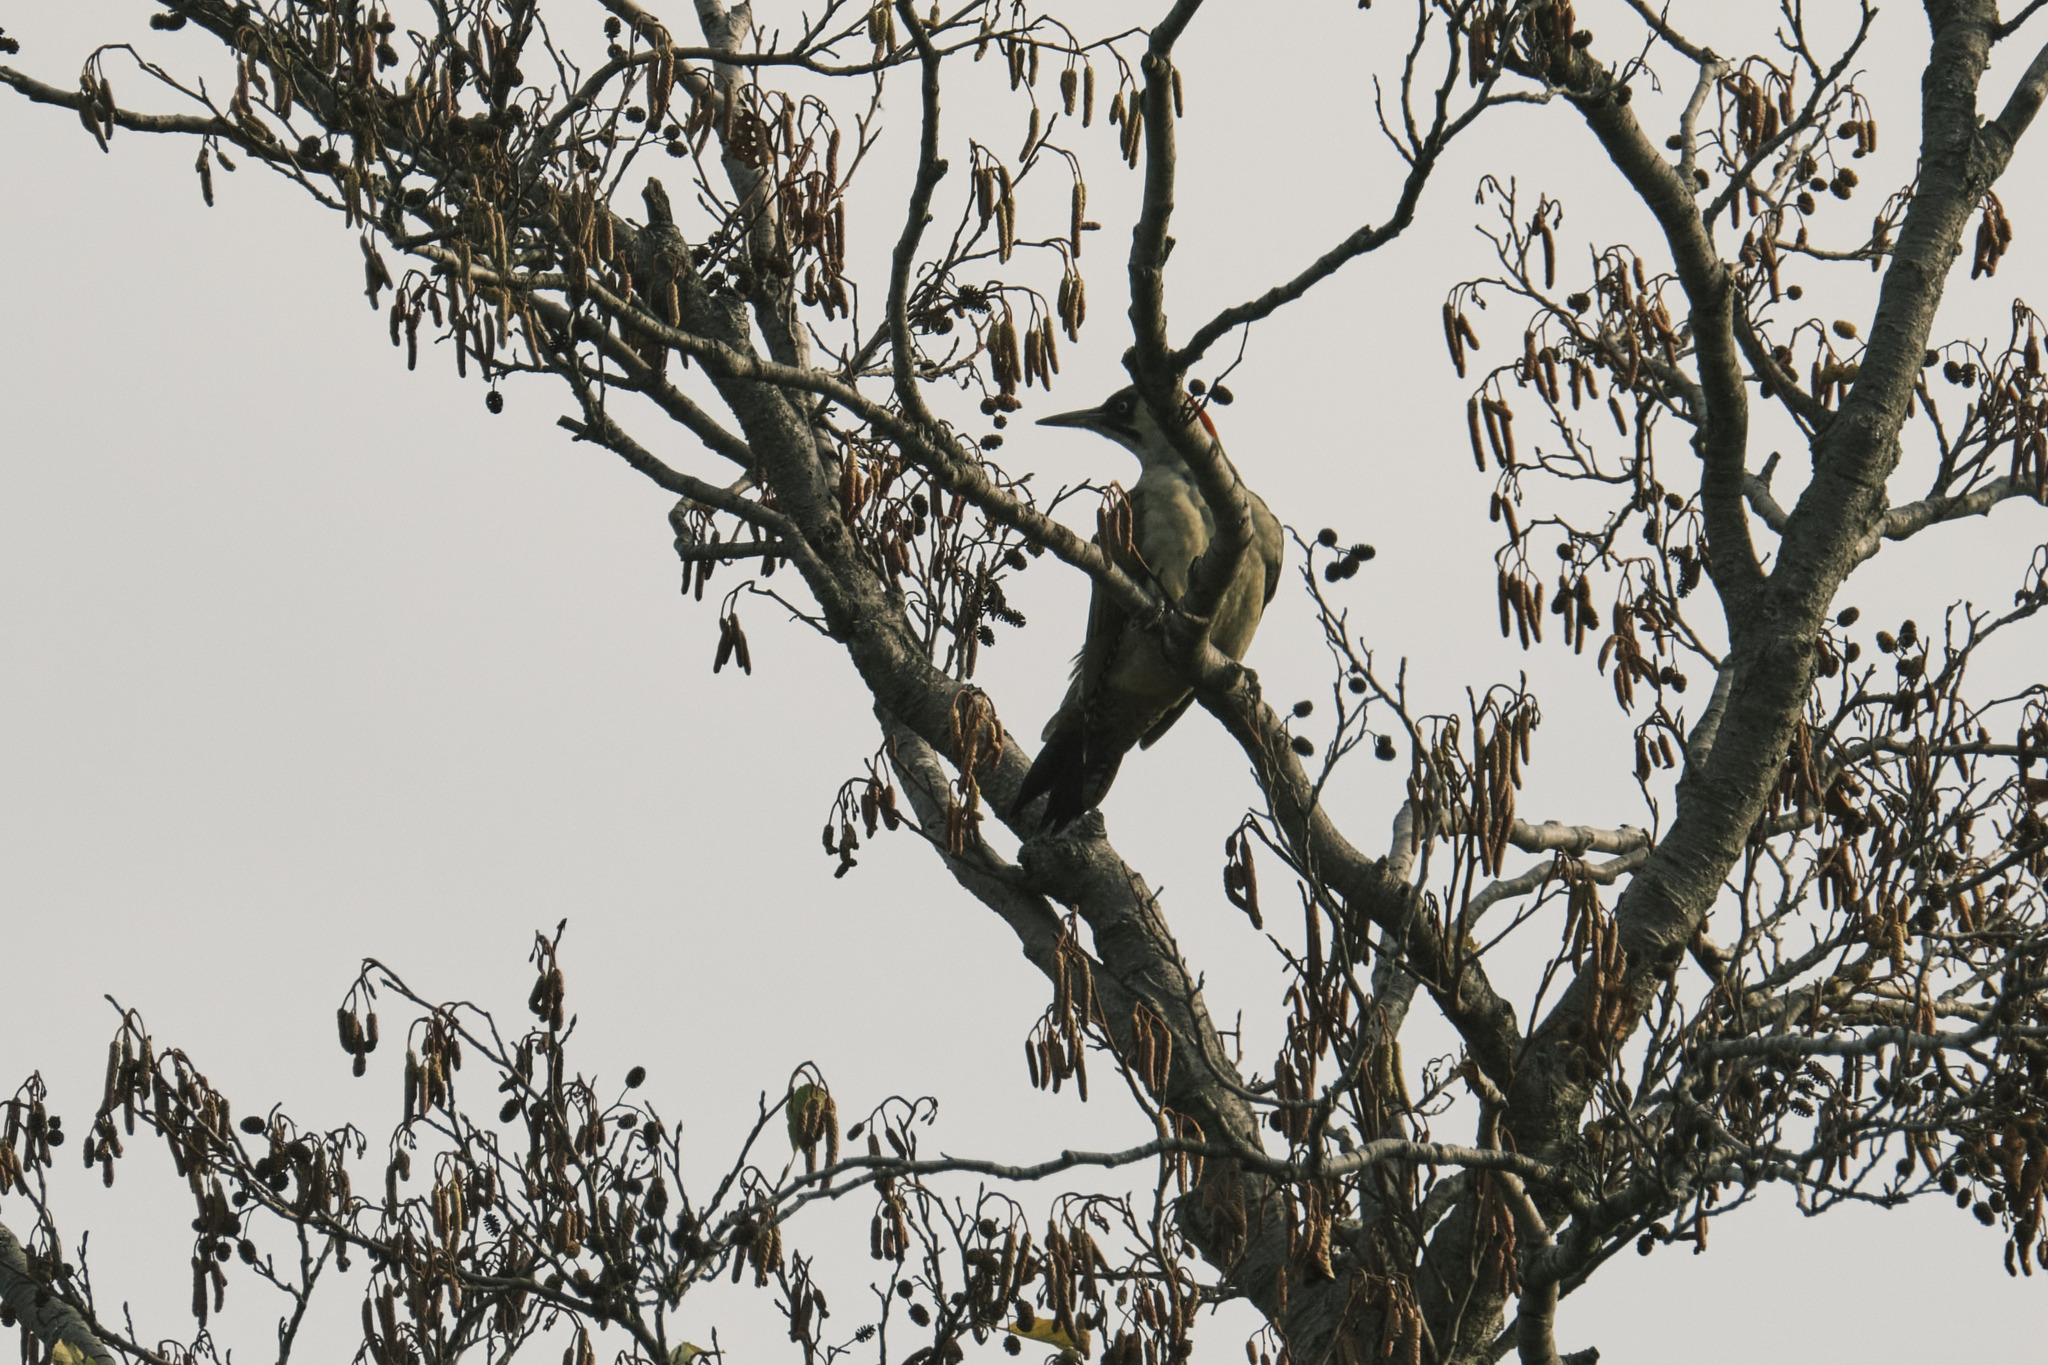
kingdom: Animalia
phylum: Chordata
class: Aves
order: Piciformes
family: Picidae
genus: Picus
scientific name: Picus viridis
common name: European green woodpecker
